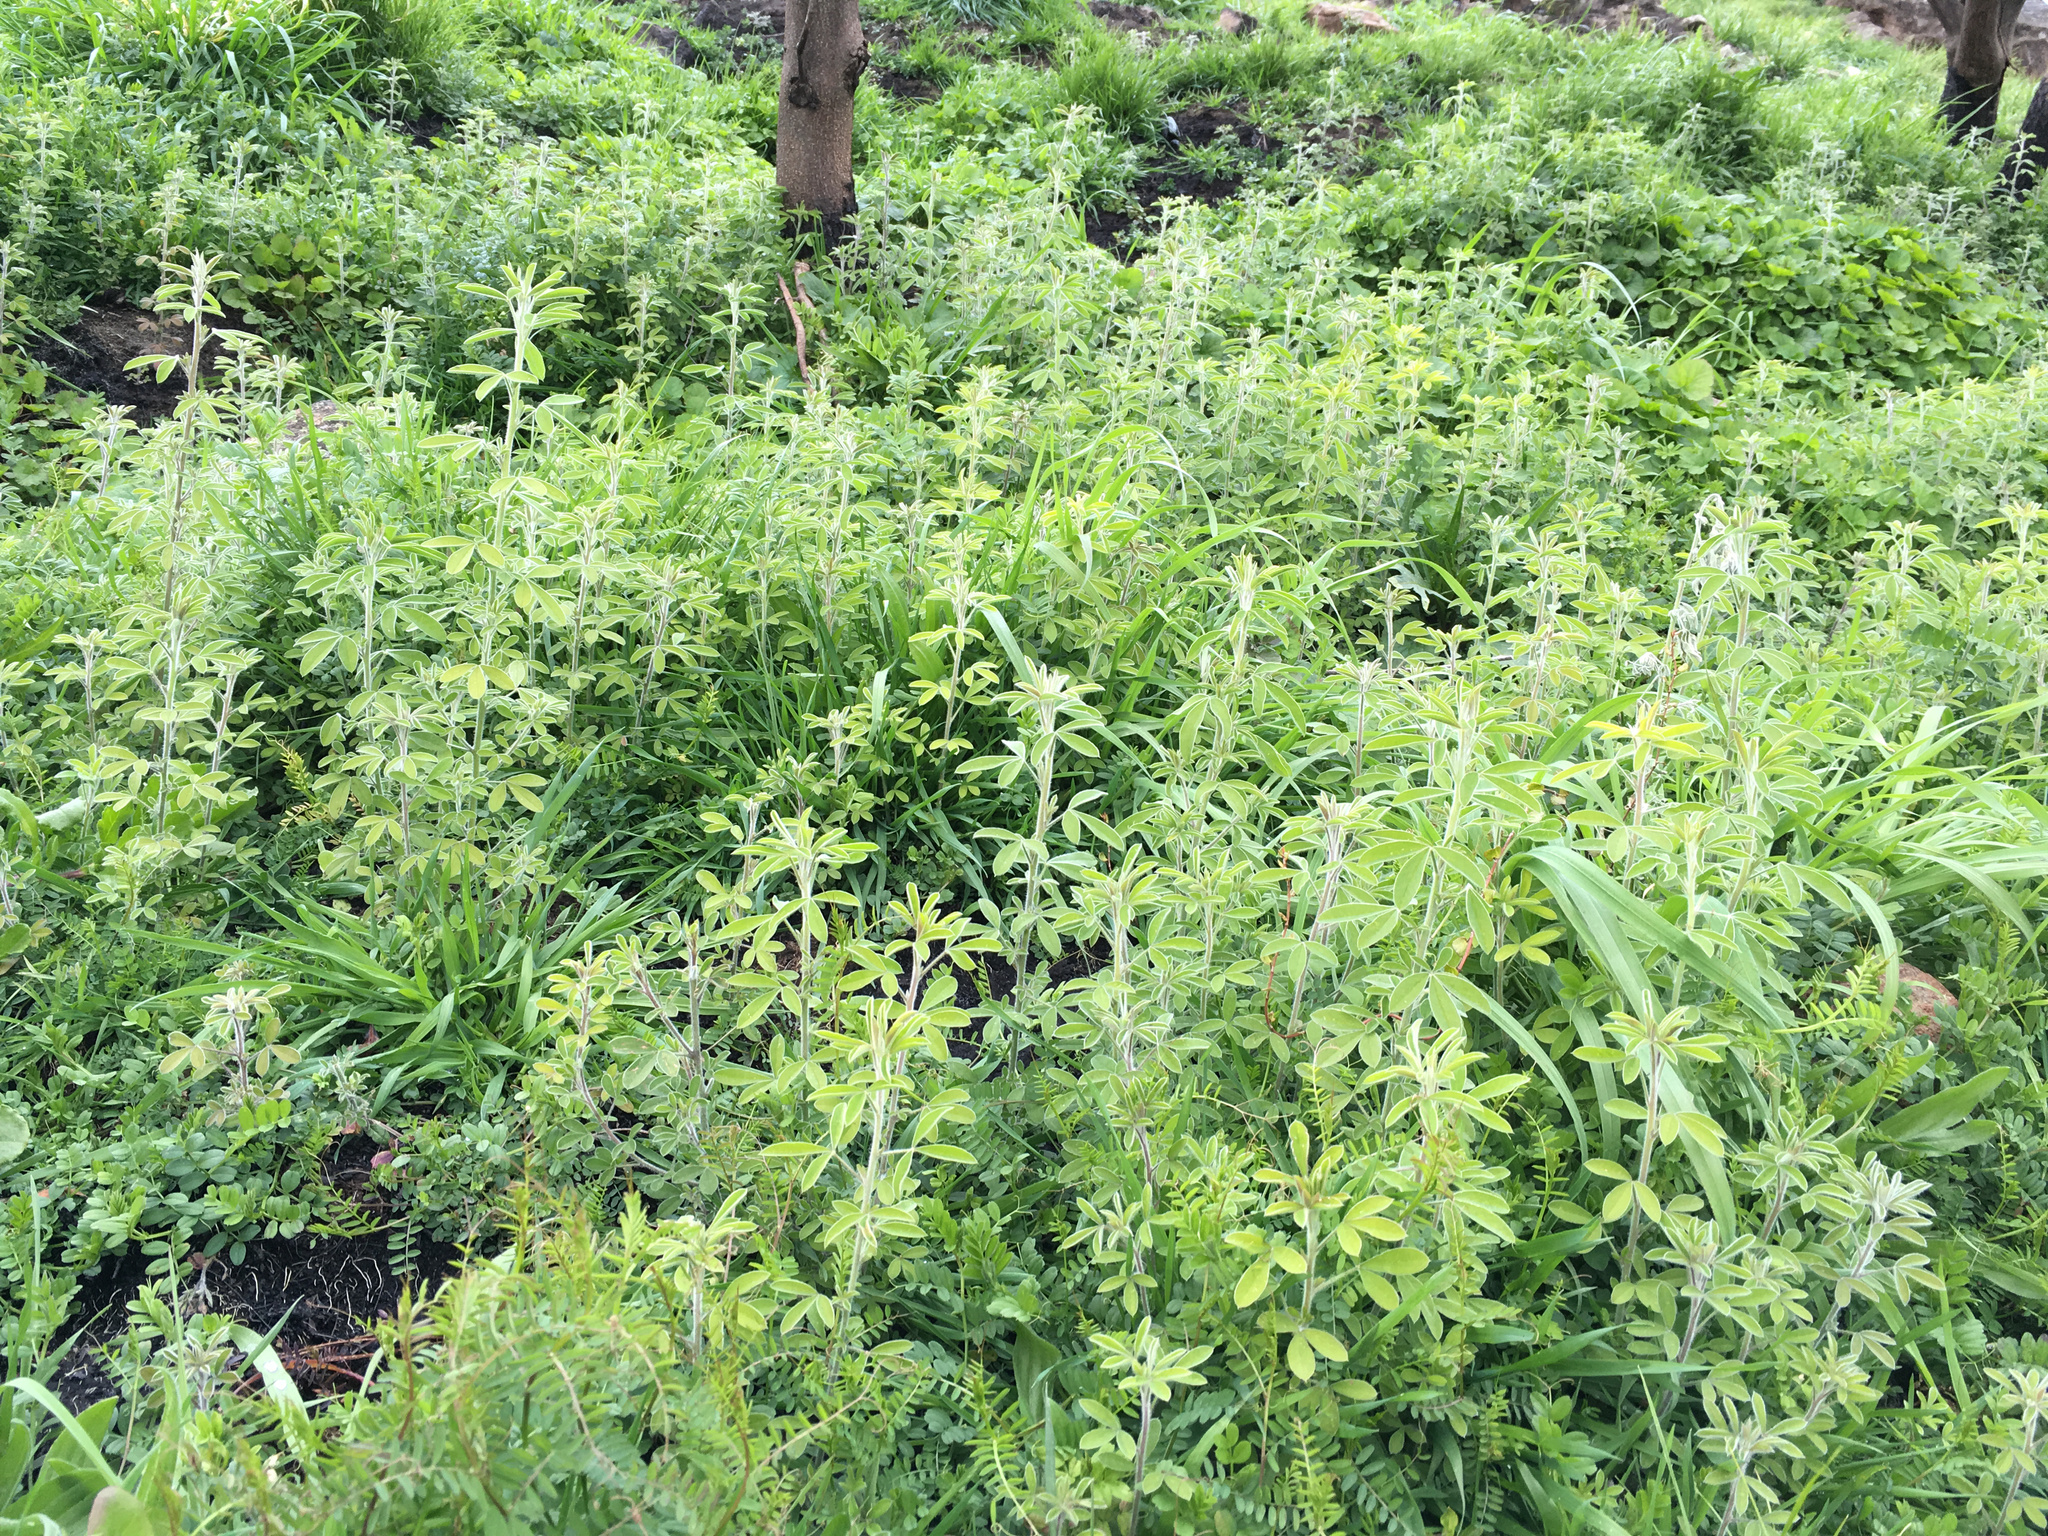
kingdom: Plantae
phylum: Tracheophyta
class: Magnoliopsida
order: Fabales
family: Fabaceae
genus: Chamaecytisus
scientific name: Chamaecytisus prolifer
